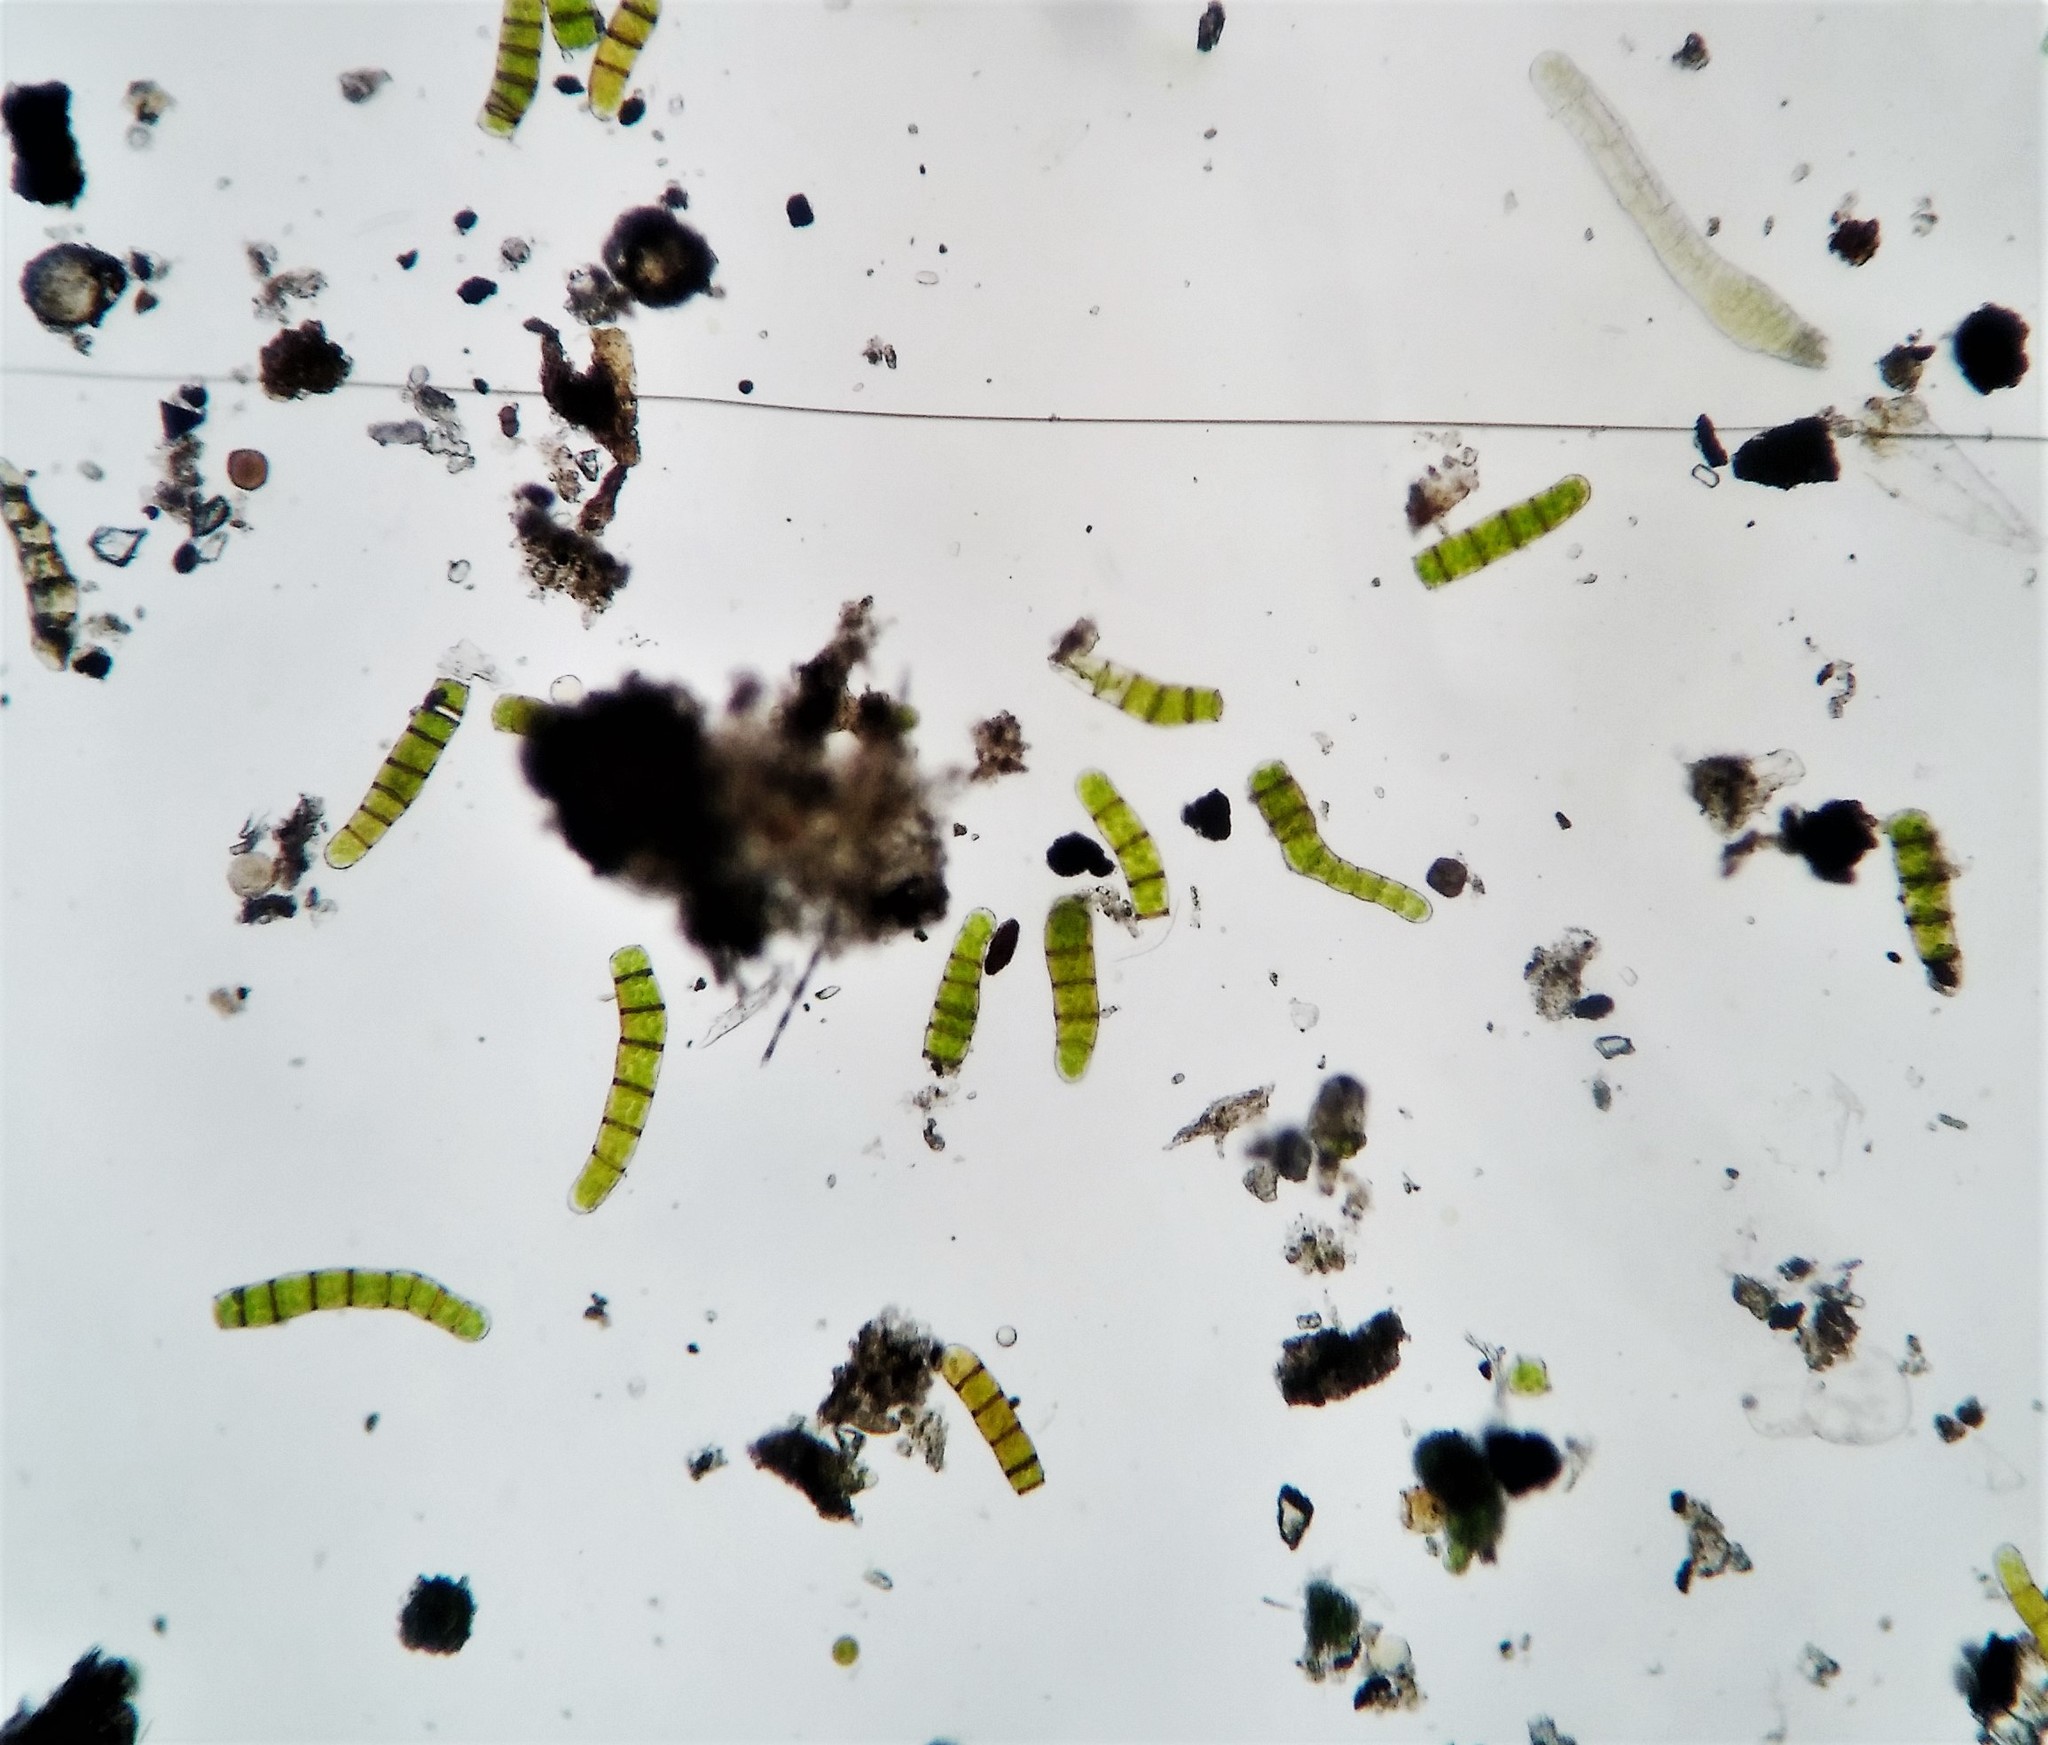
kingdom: Plantae
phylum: Bryophyta
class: Bryopsida
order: Orthotrichales
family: Orthotrichaceae
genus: Orthotrichum
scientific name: Orthotrichum diaphanum
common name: White-tipped bristle-moss
